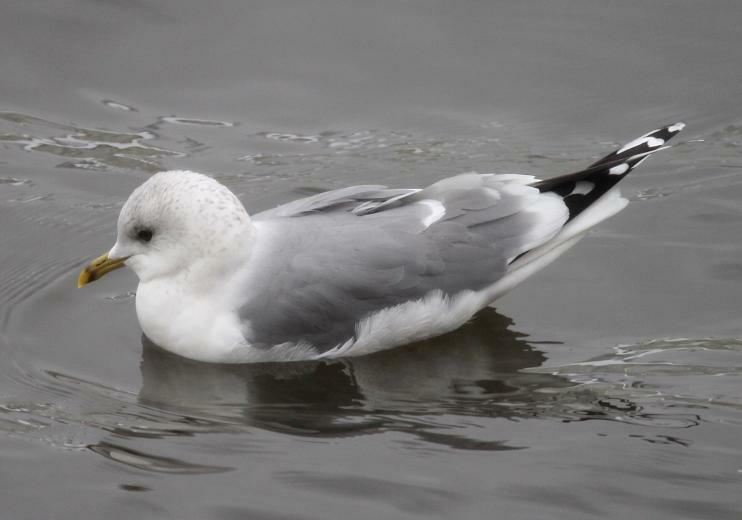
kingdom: Animalia
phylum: Chordata
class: Aves
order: Charadriiformes
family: Laridae
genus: Larus
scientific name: Larus canus
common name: Mew gull
